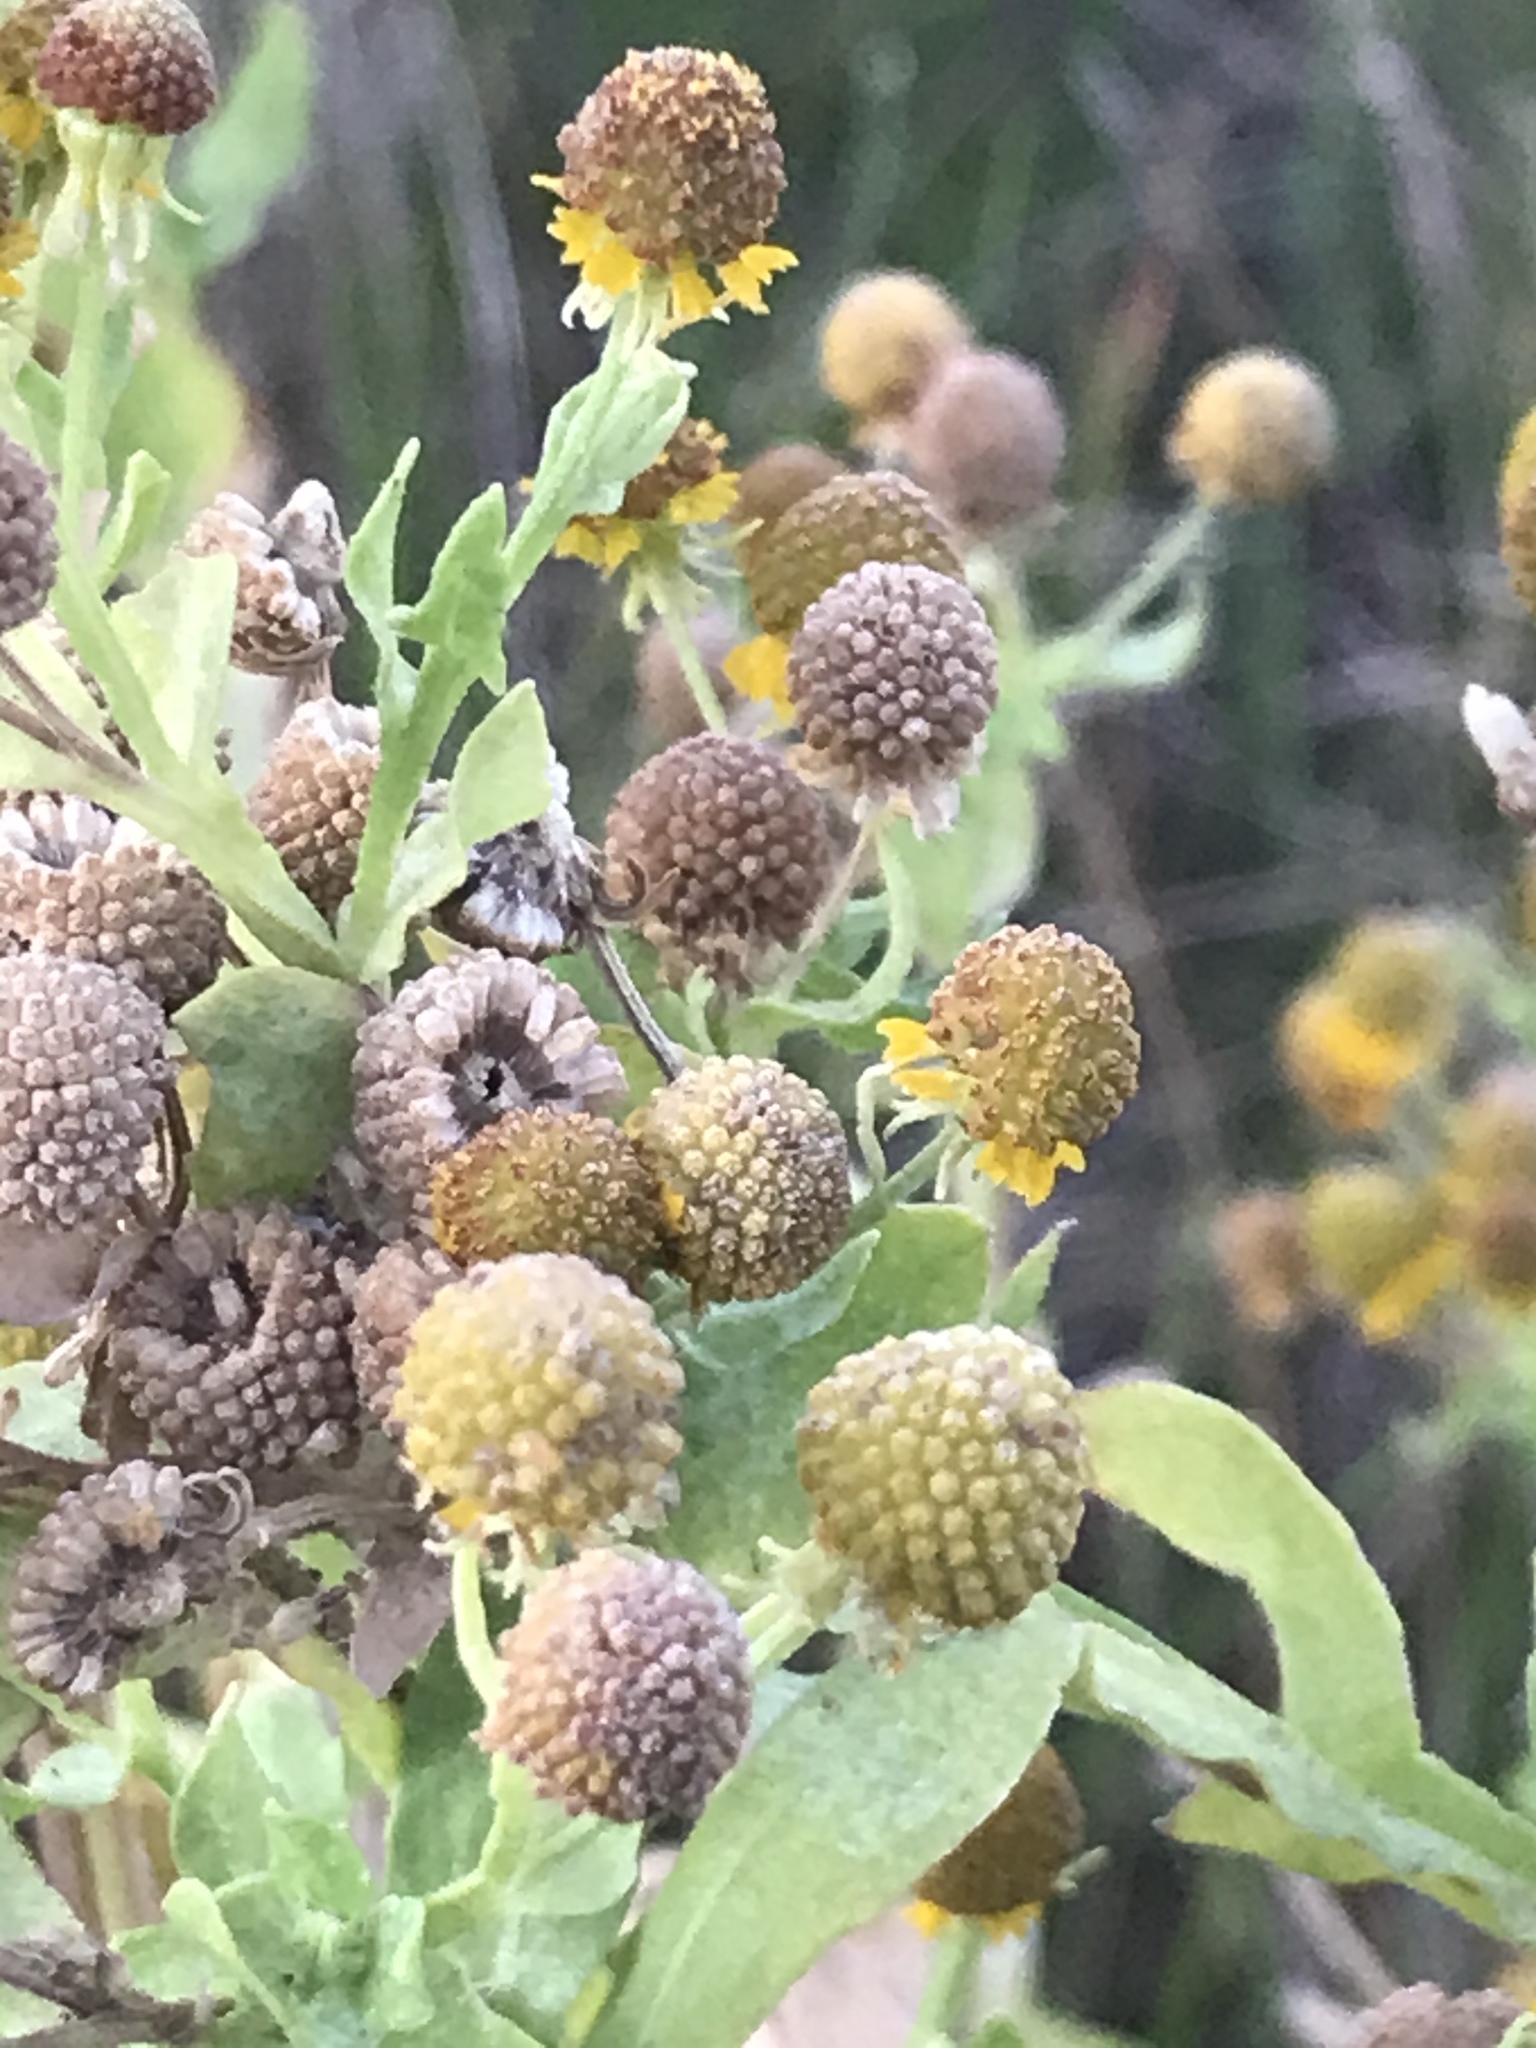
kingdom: Plantae
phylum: Tracheophyta
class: Magnoliopsida
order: Asterales
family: Asteraceae
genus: Helenium
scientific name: Helenium microcephalum
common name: Smallhead sneezeweed
